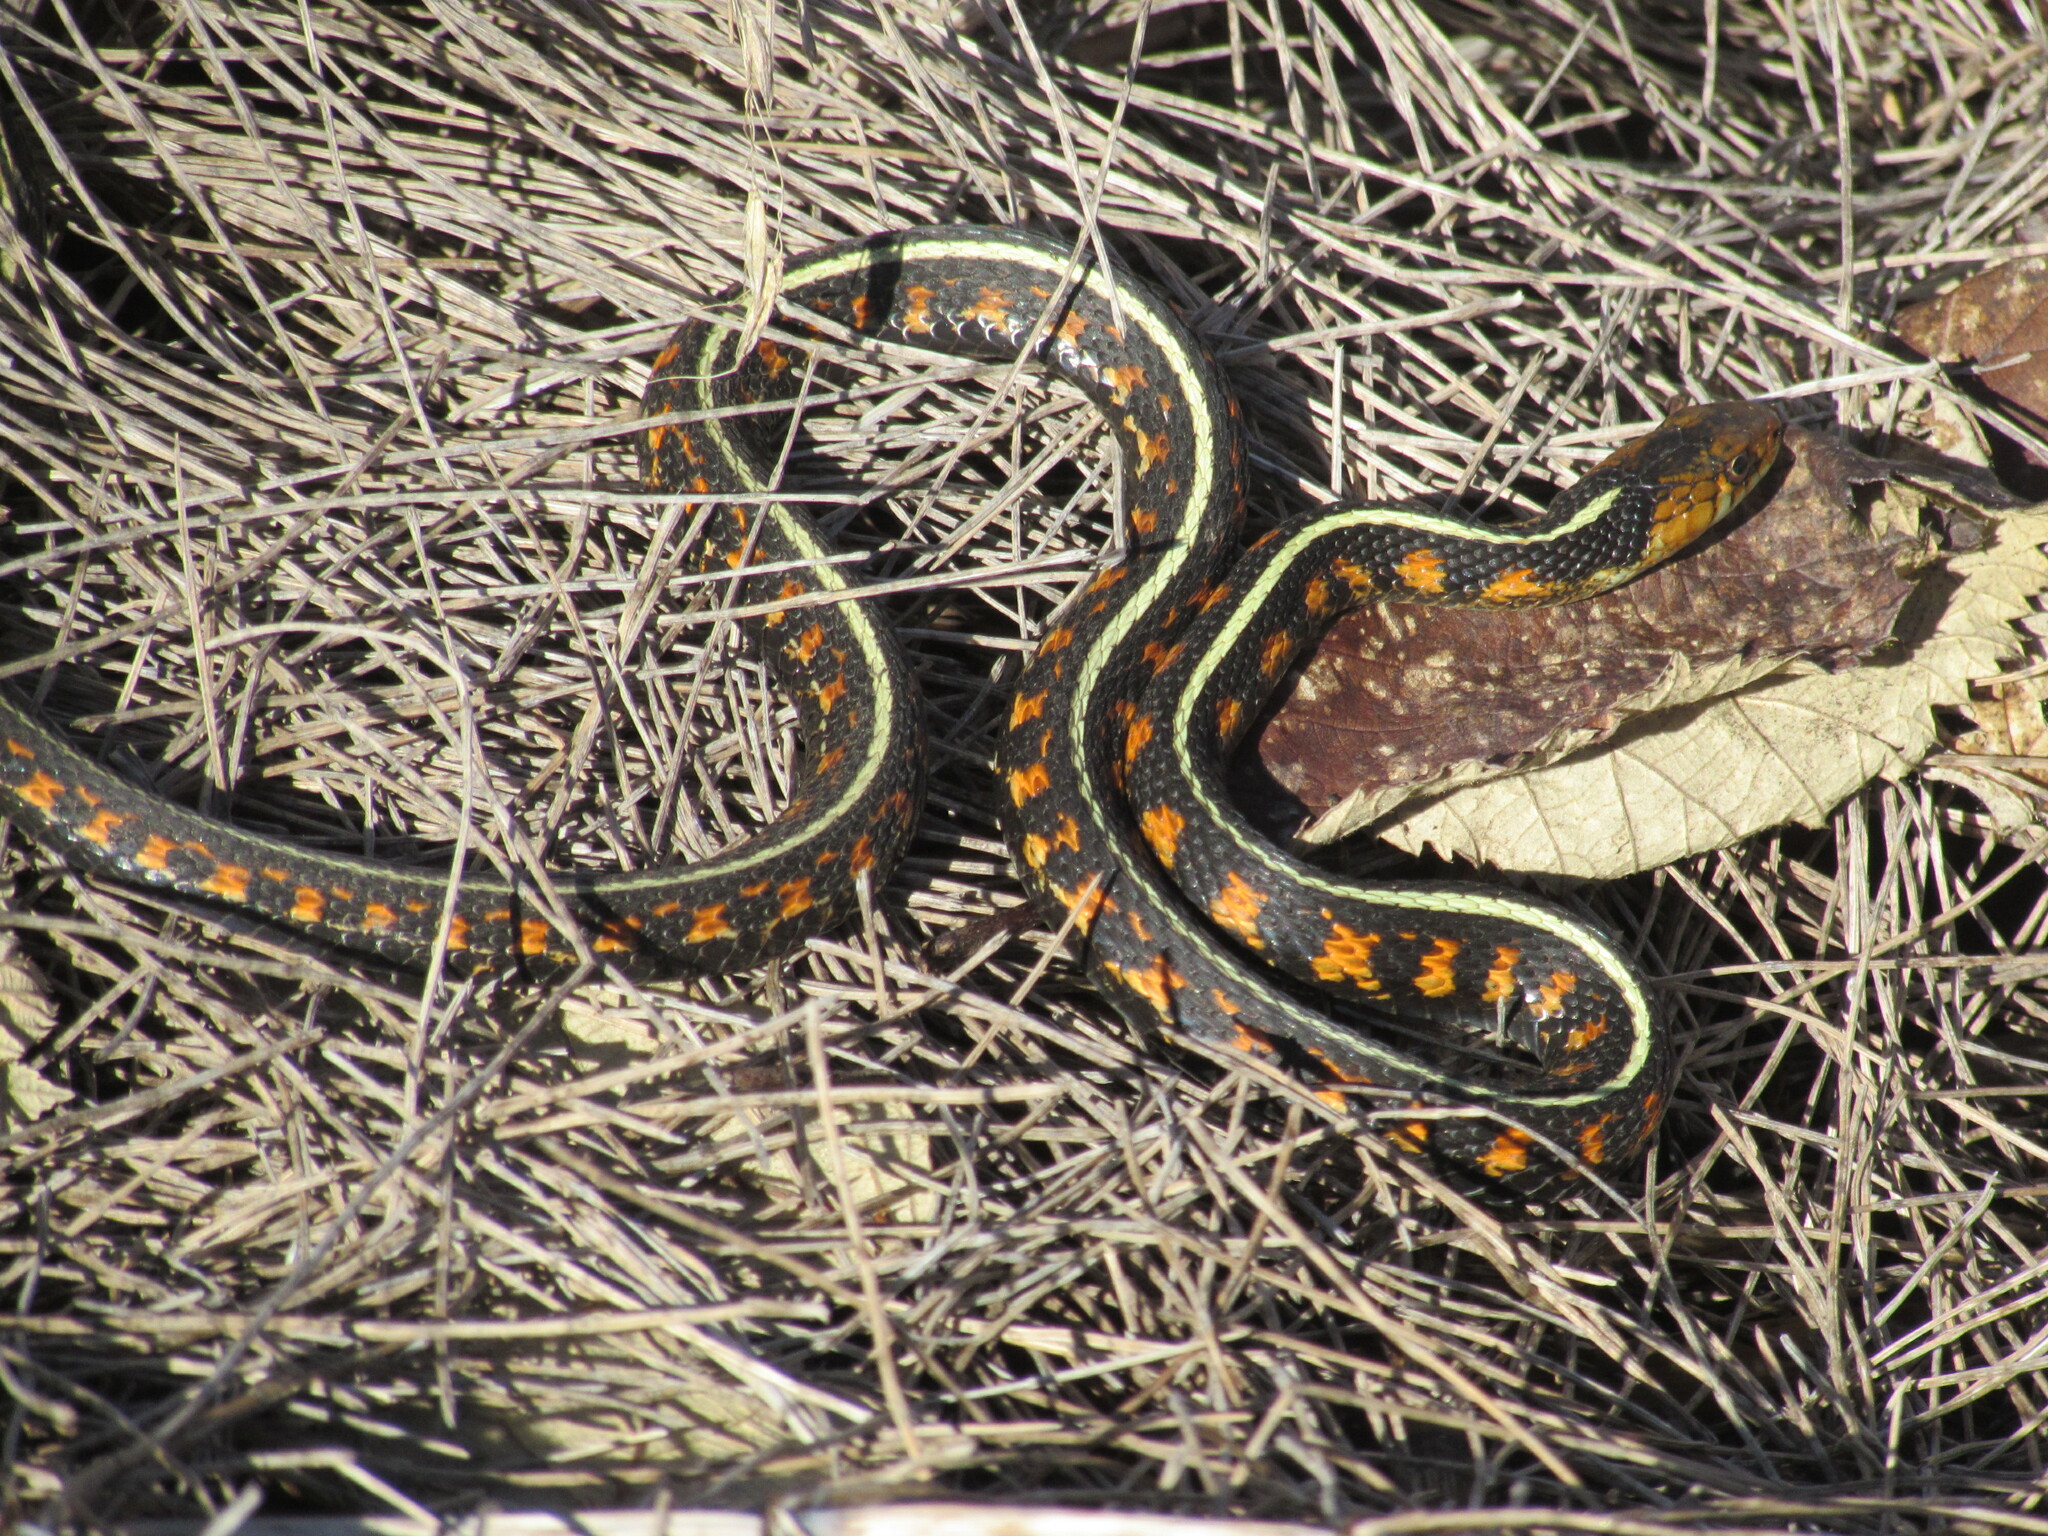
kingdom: Animalia
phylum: Chordata
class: Squamata
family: Colubridae
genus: Thamnophis
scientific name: Thamnophis sirtalis
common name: Common garter snake
